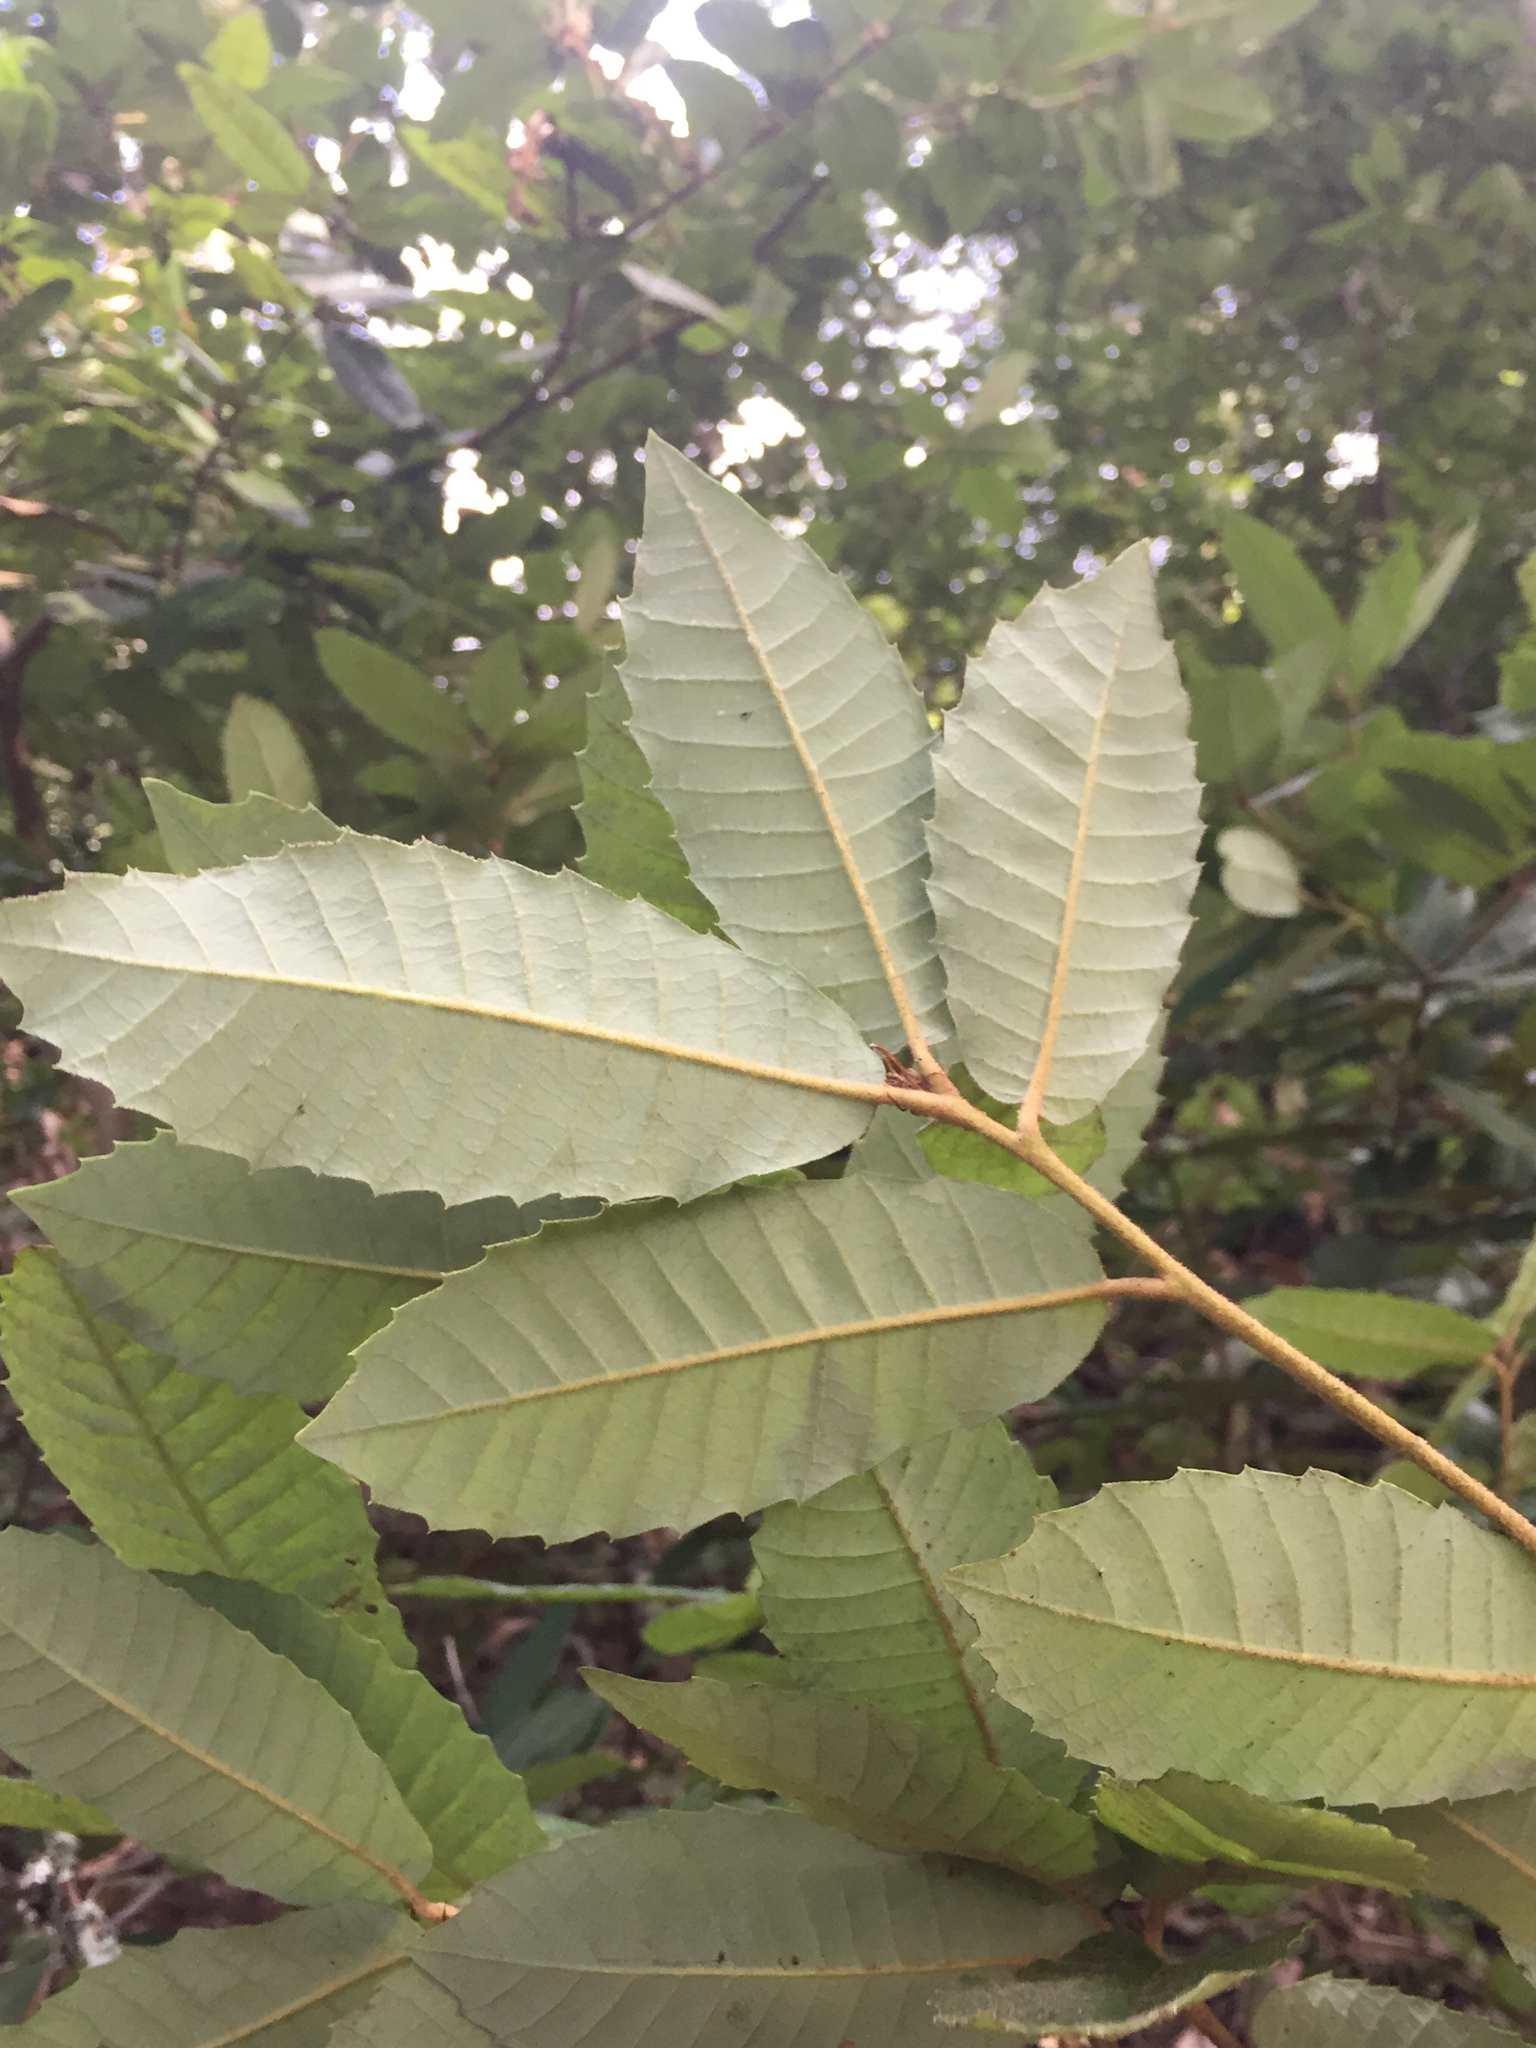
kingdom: Plantae
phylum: Tracheophyta
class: Magnoliopsida
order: Fagales
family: Fagaceae
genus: Notholithocarpus
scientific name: Notholithocarpus densiflorus
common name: Tan bark oak
